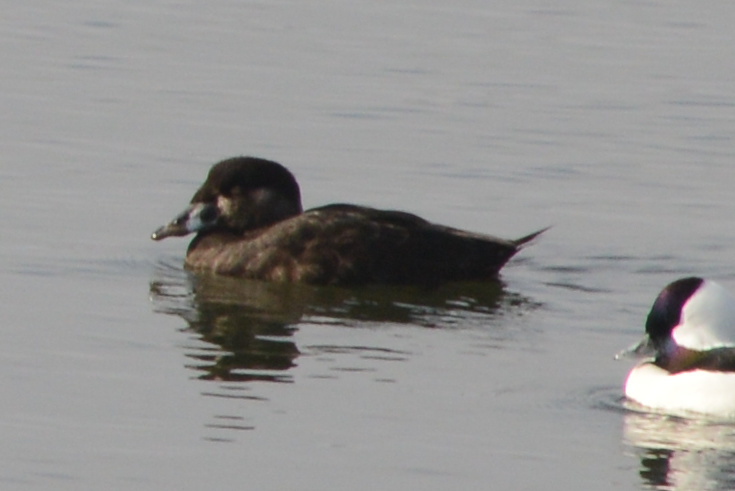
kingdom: Animalia
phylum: Chordata
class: Aves
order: Anseriformes
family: Anatidae
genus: Melanitta
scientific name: Melanitta perspicillata
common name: Surf scoter
